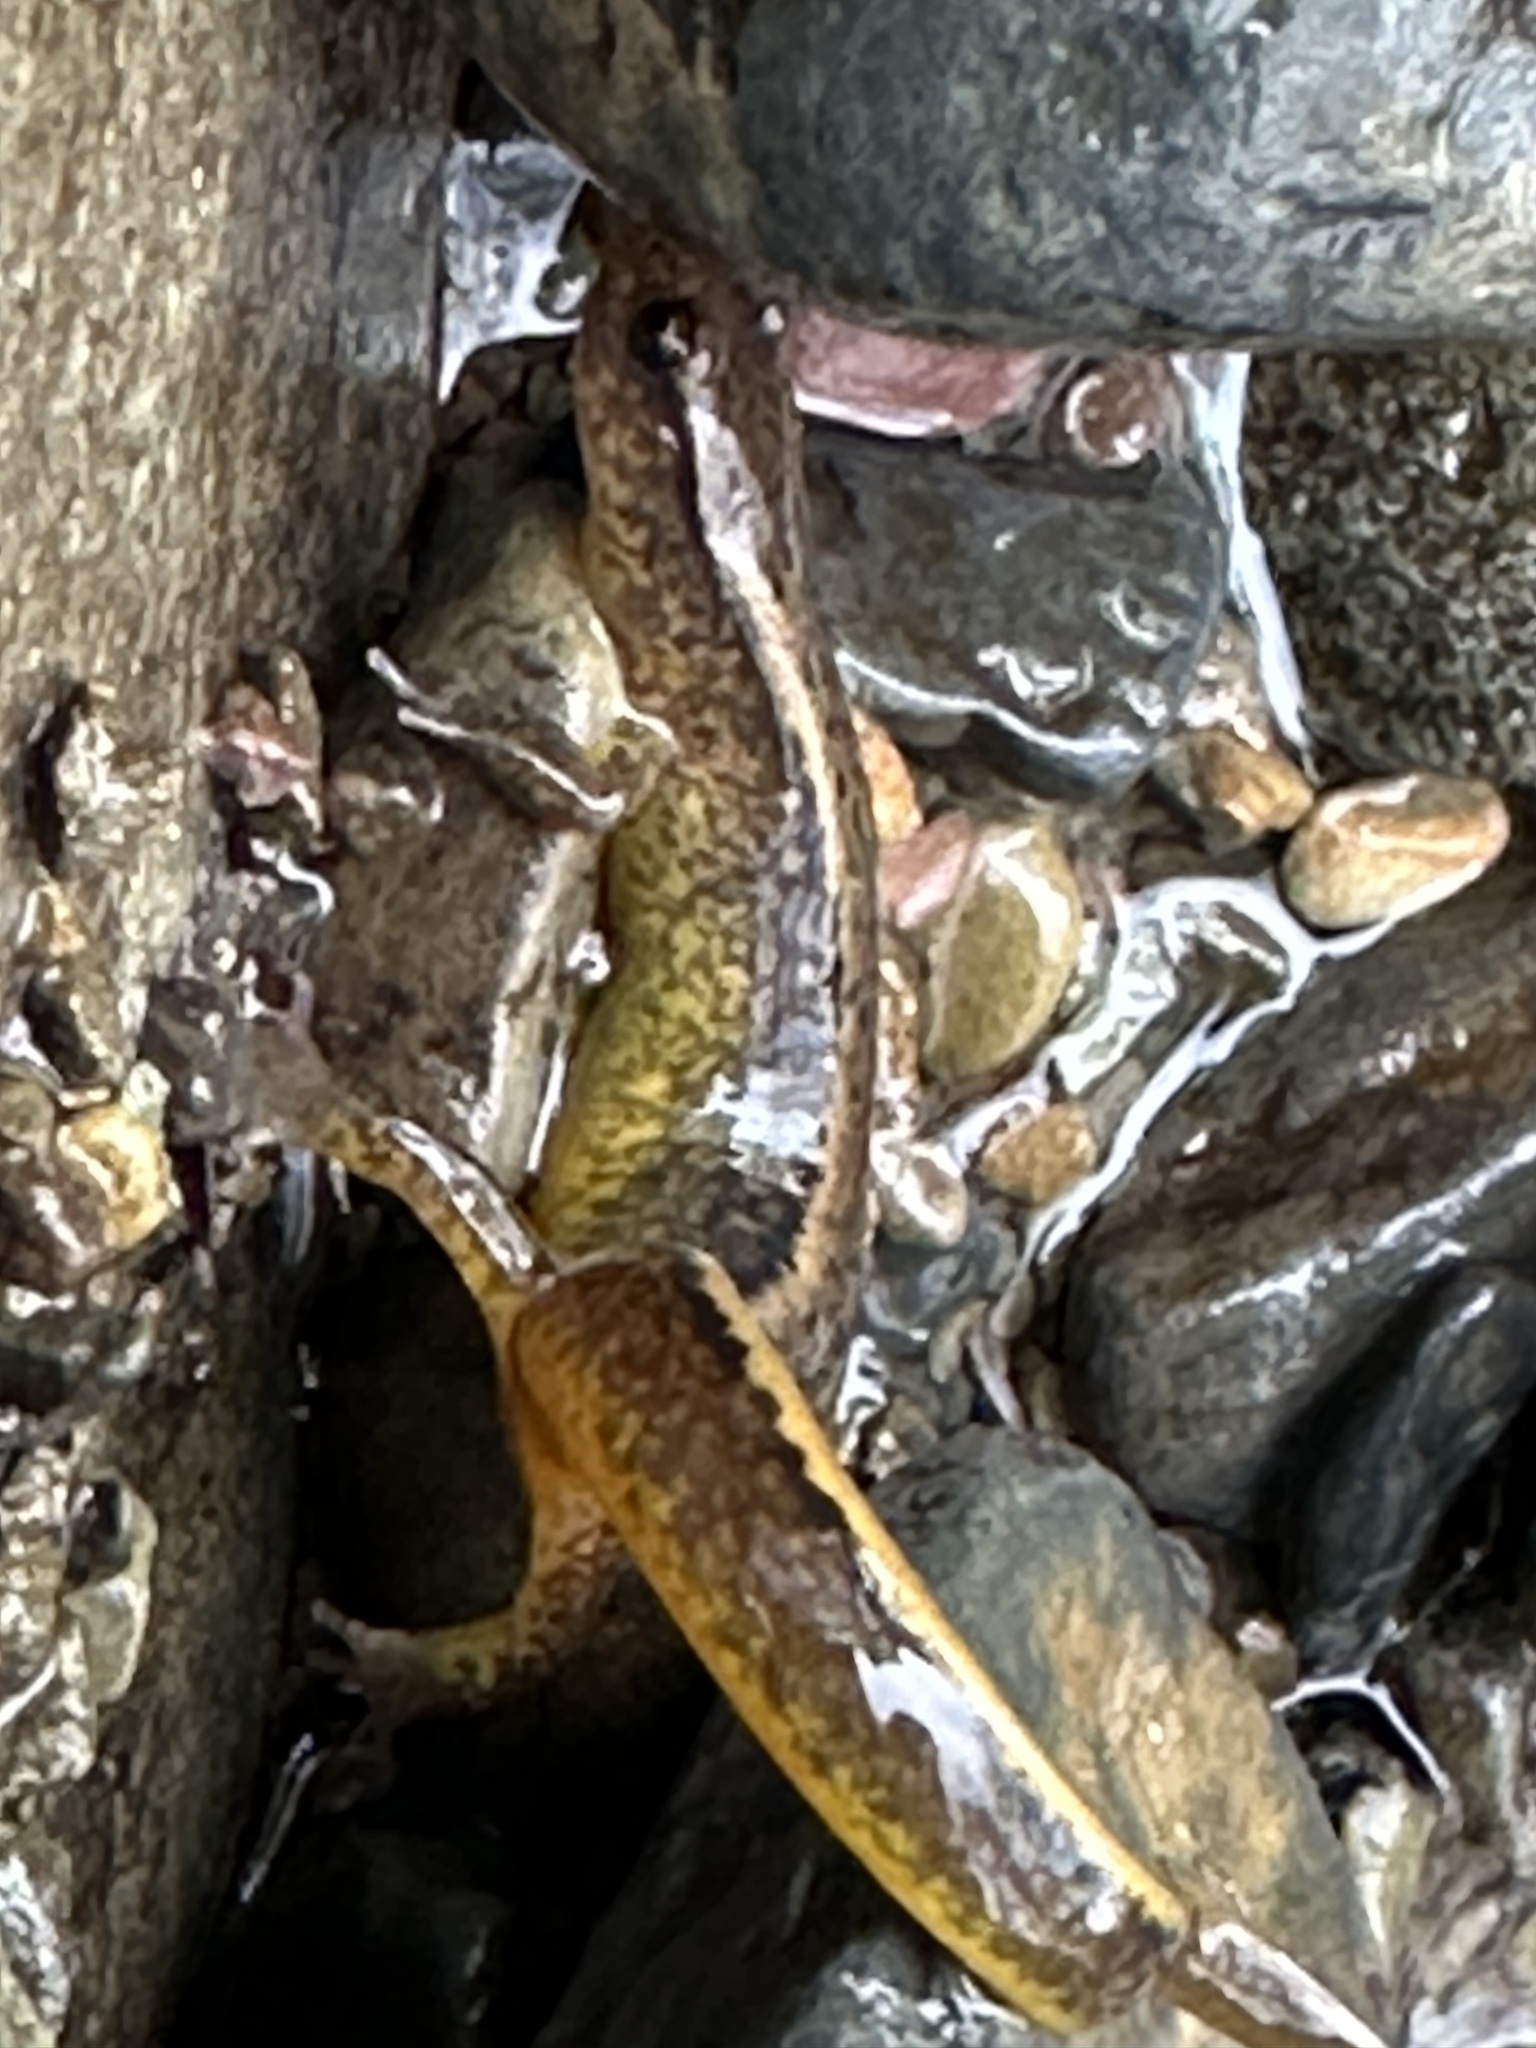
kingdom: Animalia
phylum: Chordata
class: Amphibia
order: Caudata
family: Plethodontidae
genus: Eurycea
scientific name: Eurycea bislineata
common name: Northern two-lined salamander
